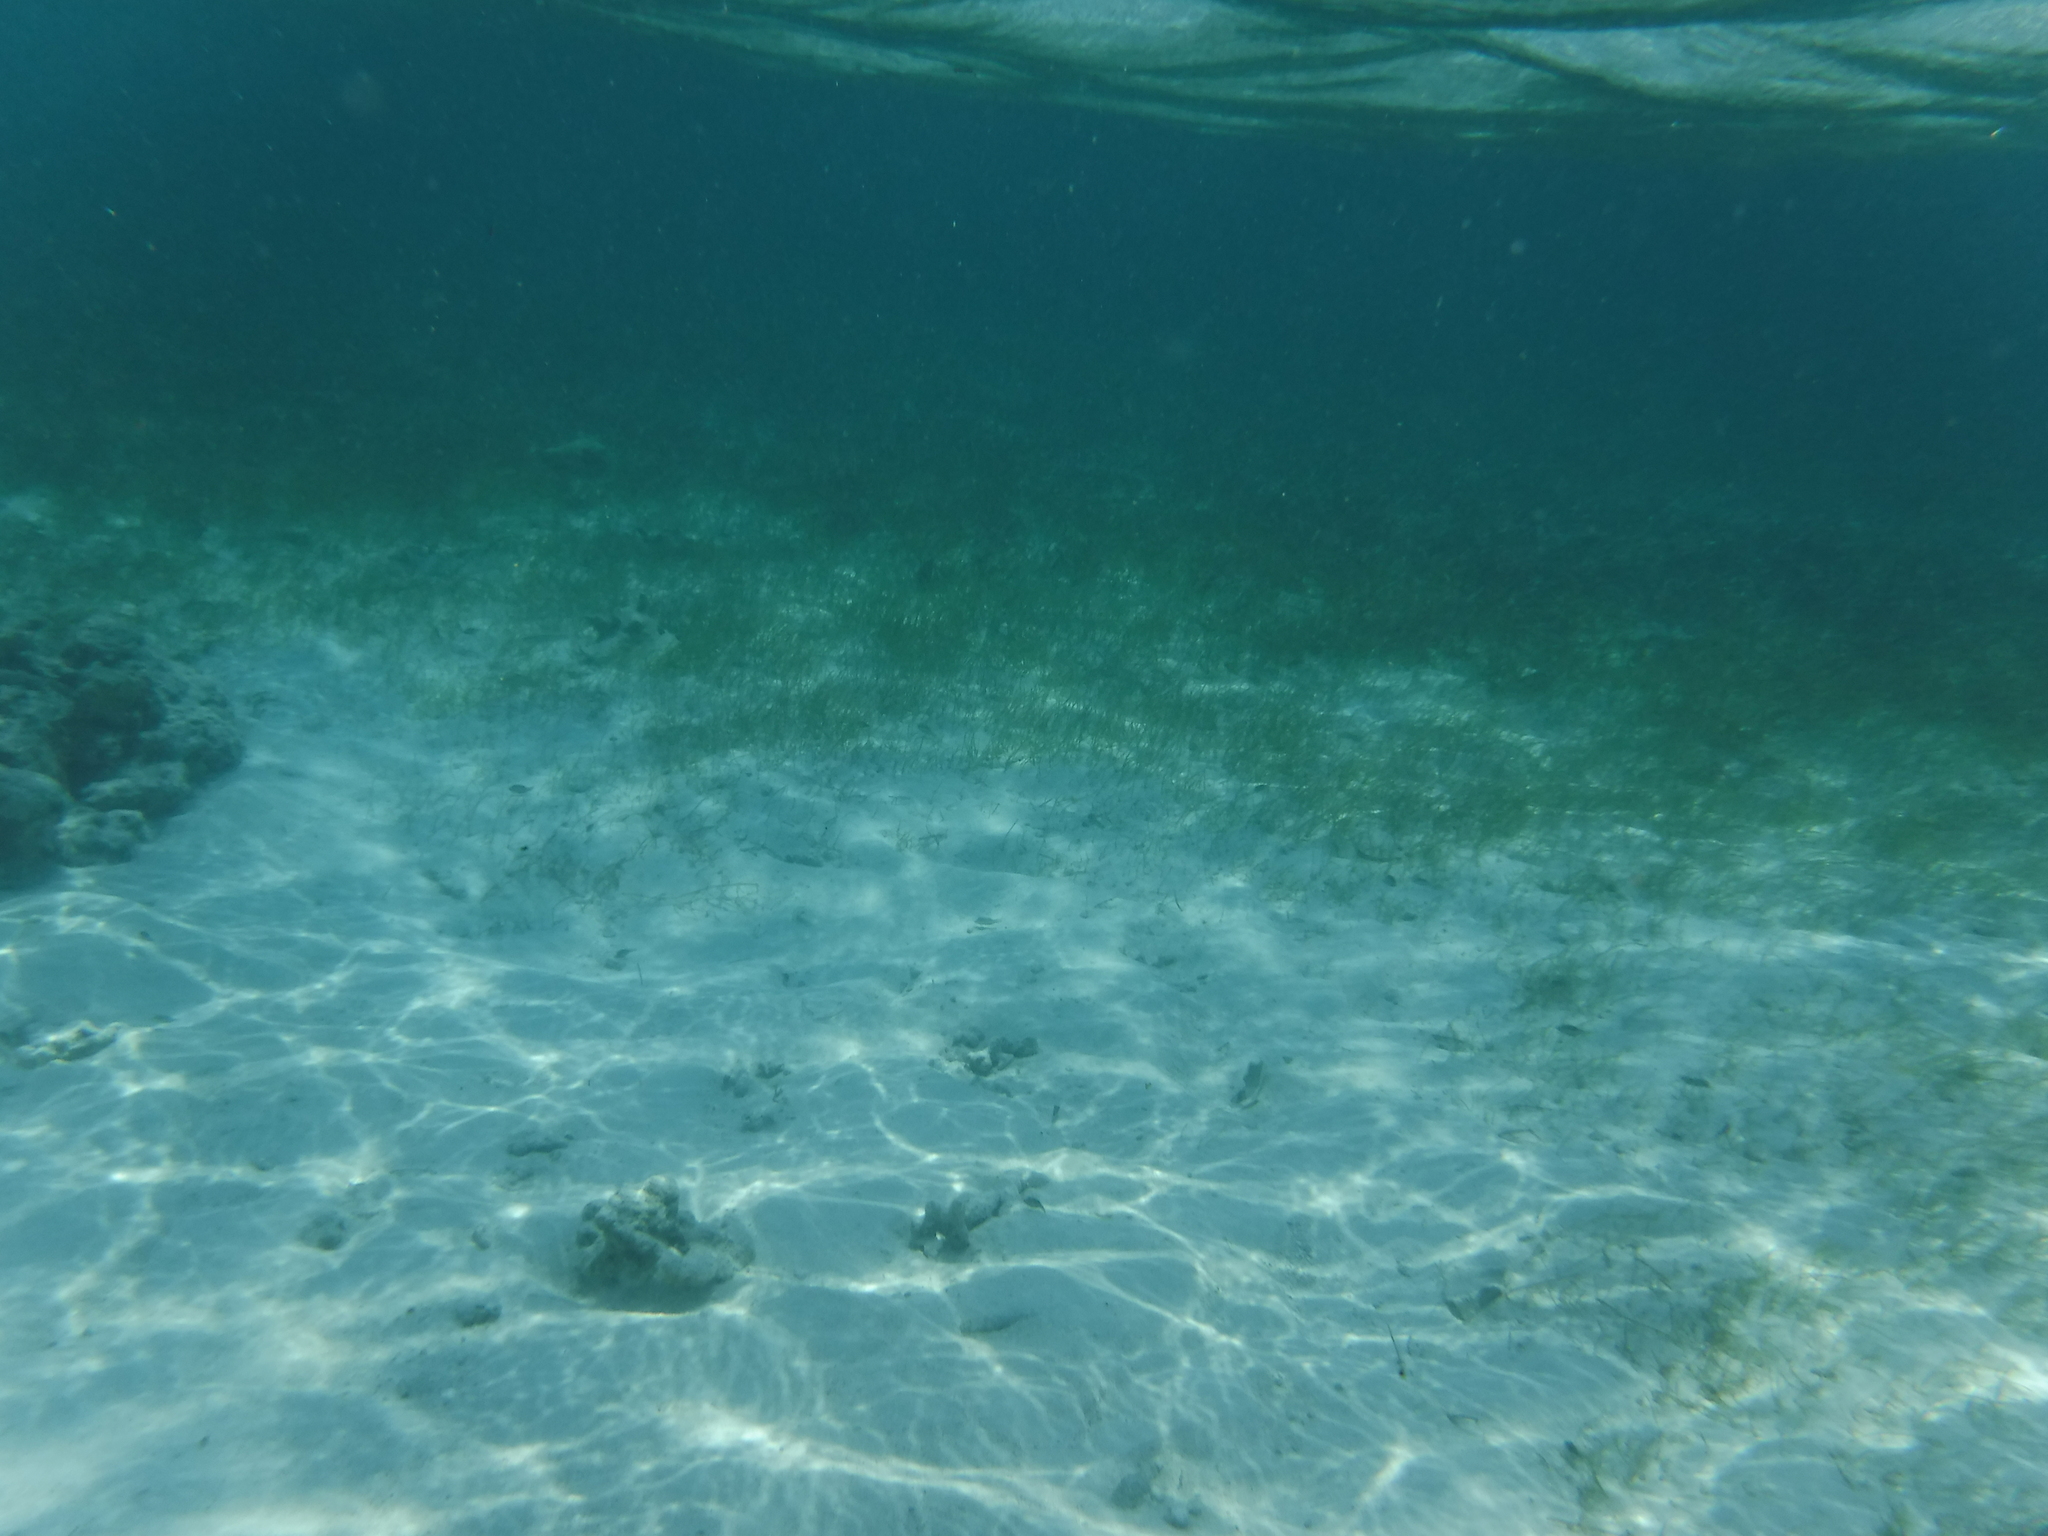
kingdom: Plantae
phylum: Tracheophyta
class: Liliopsida
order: Alismatales
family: Hydrocharitaceae
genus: Thalassia
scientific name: Thalassia testudinum
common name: Species code: tt
